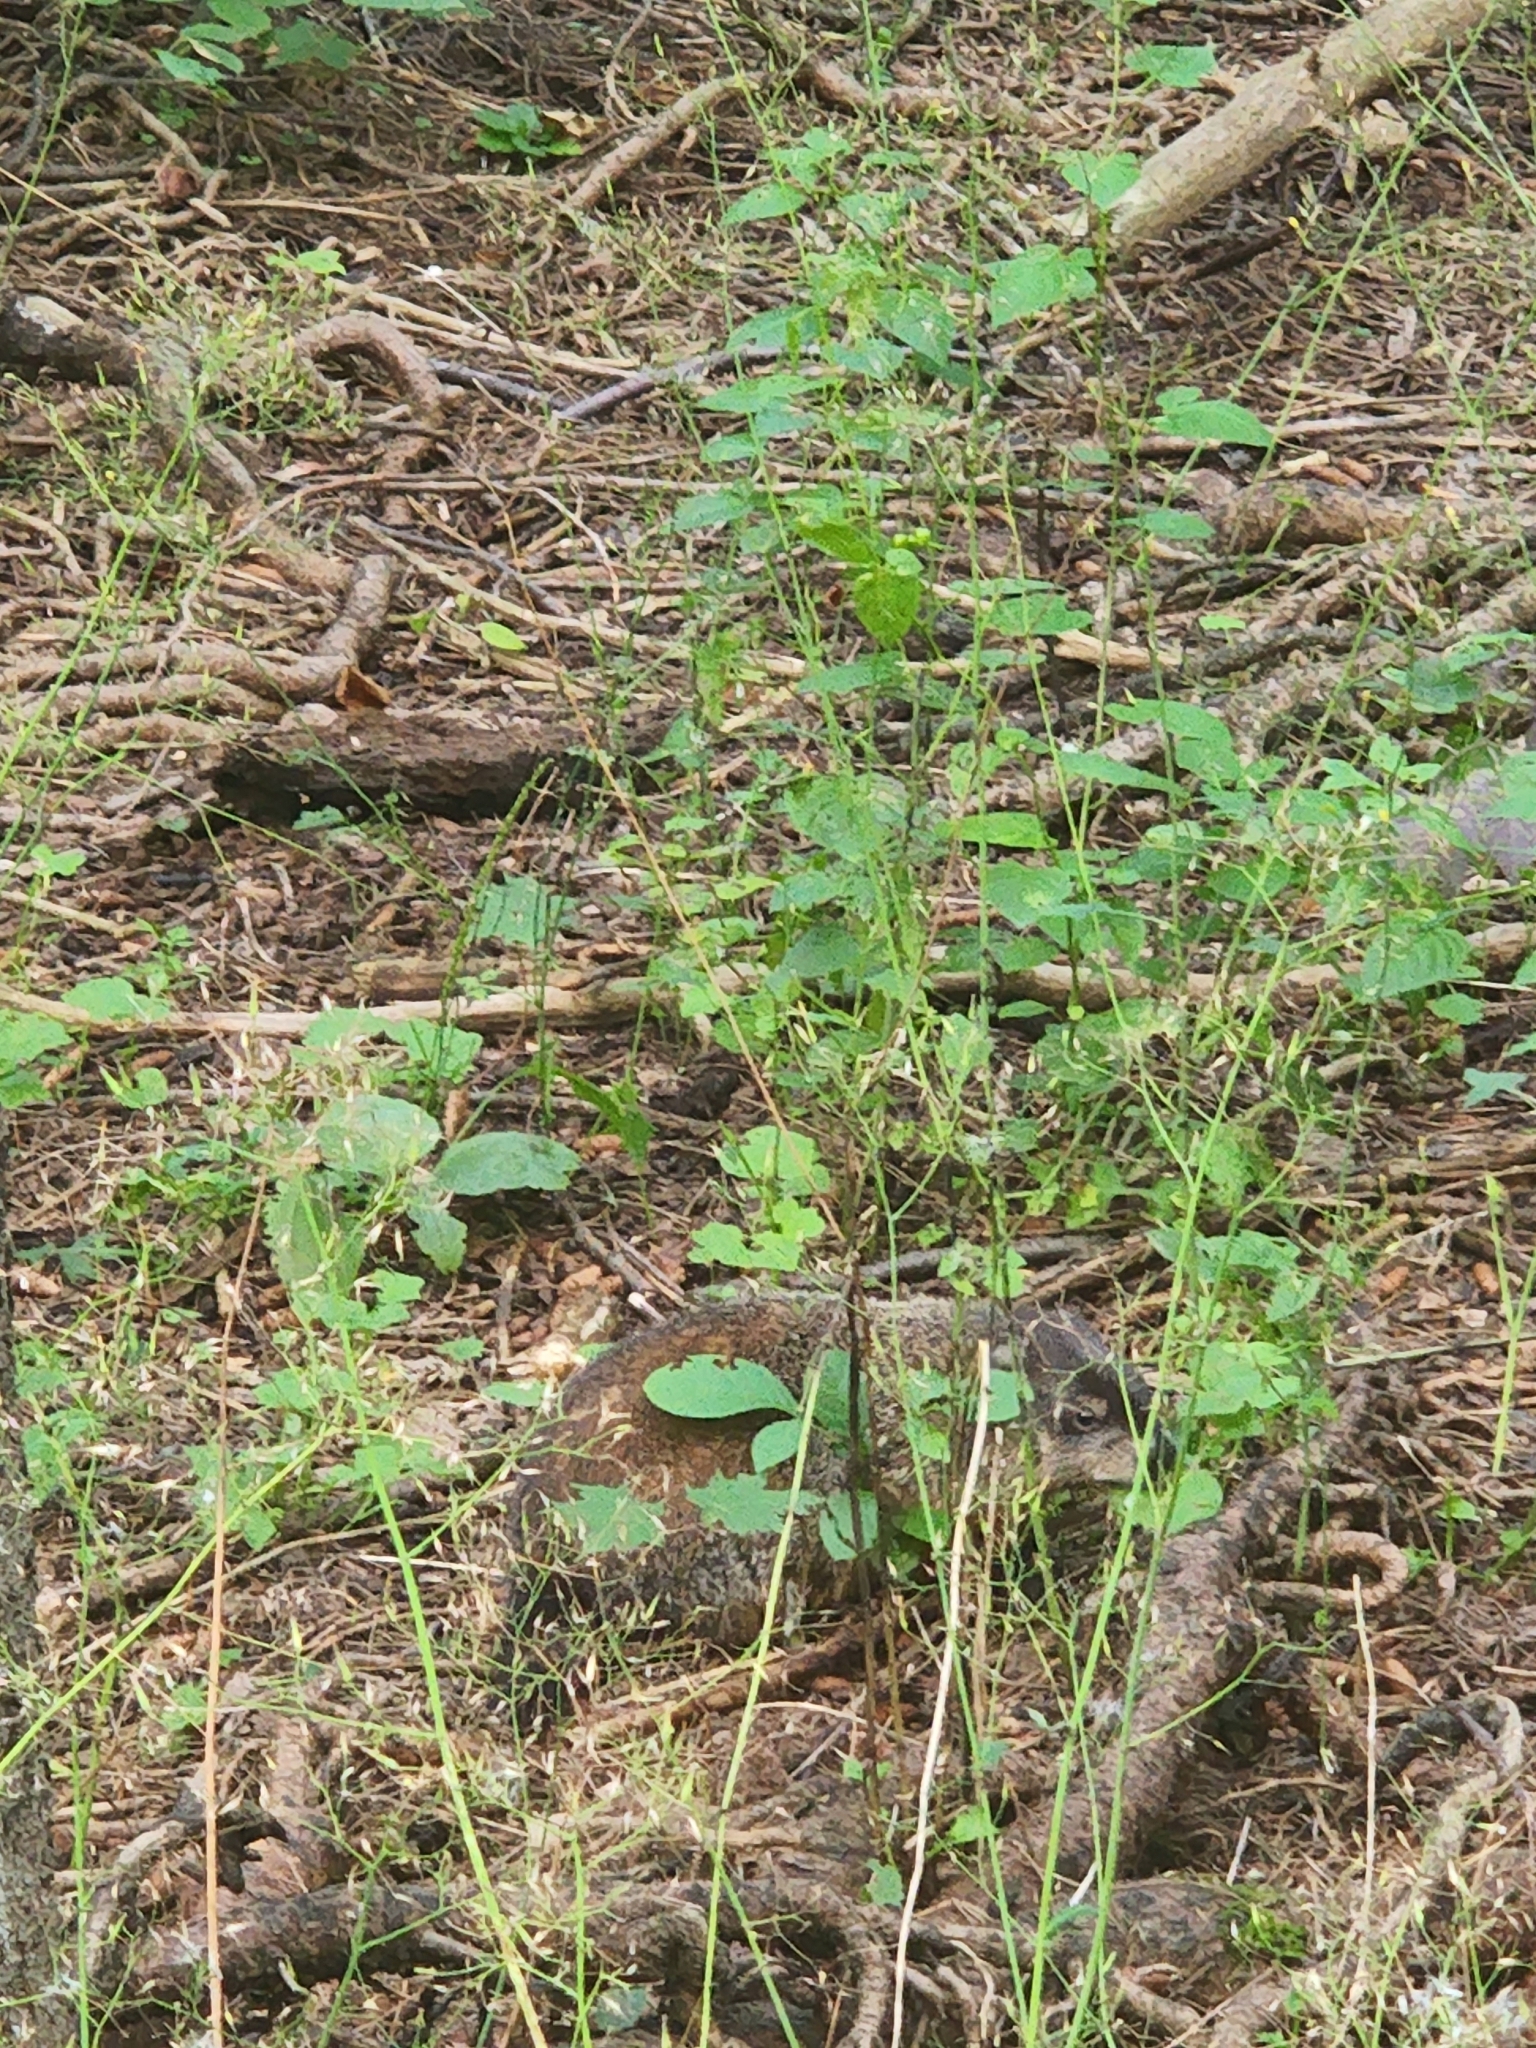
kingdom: Animalia
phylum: Chordata
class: Mammalia
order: Rodentia
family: Sciuridae
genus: Marmota
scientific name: Marmota monax
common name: Groundhog
